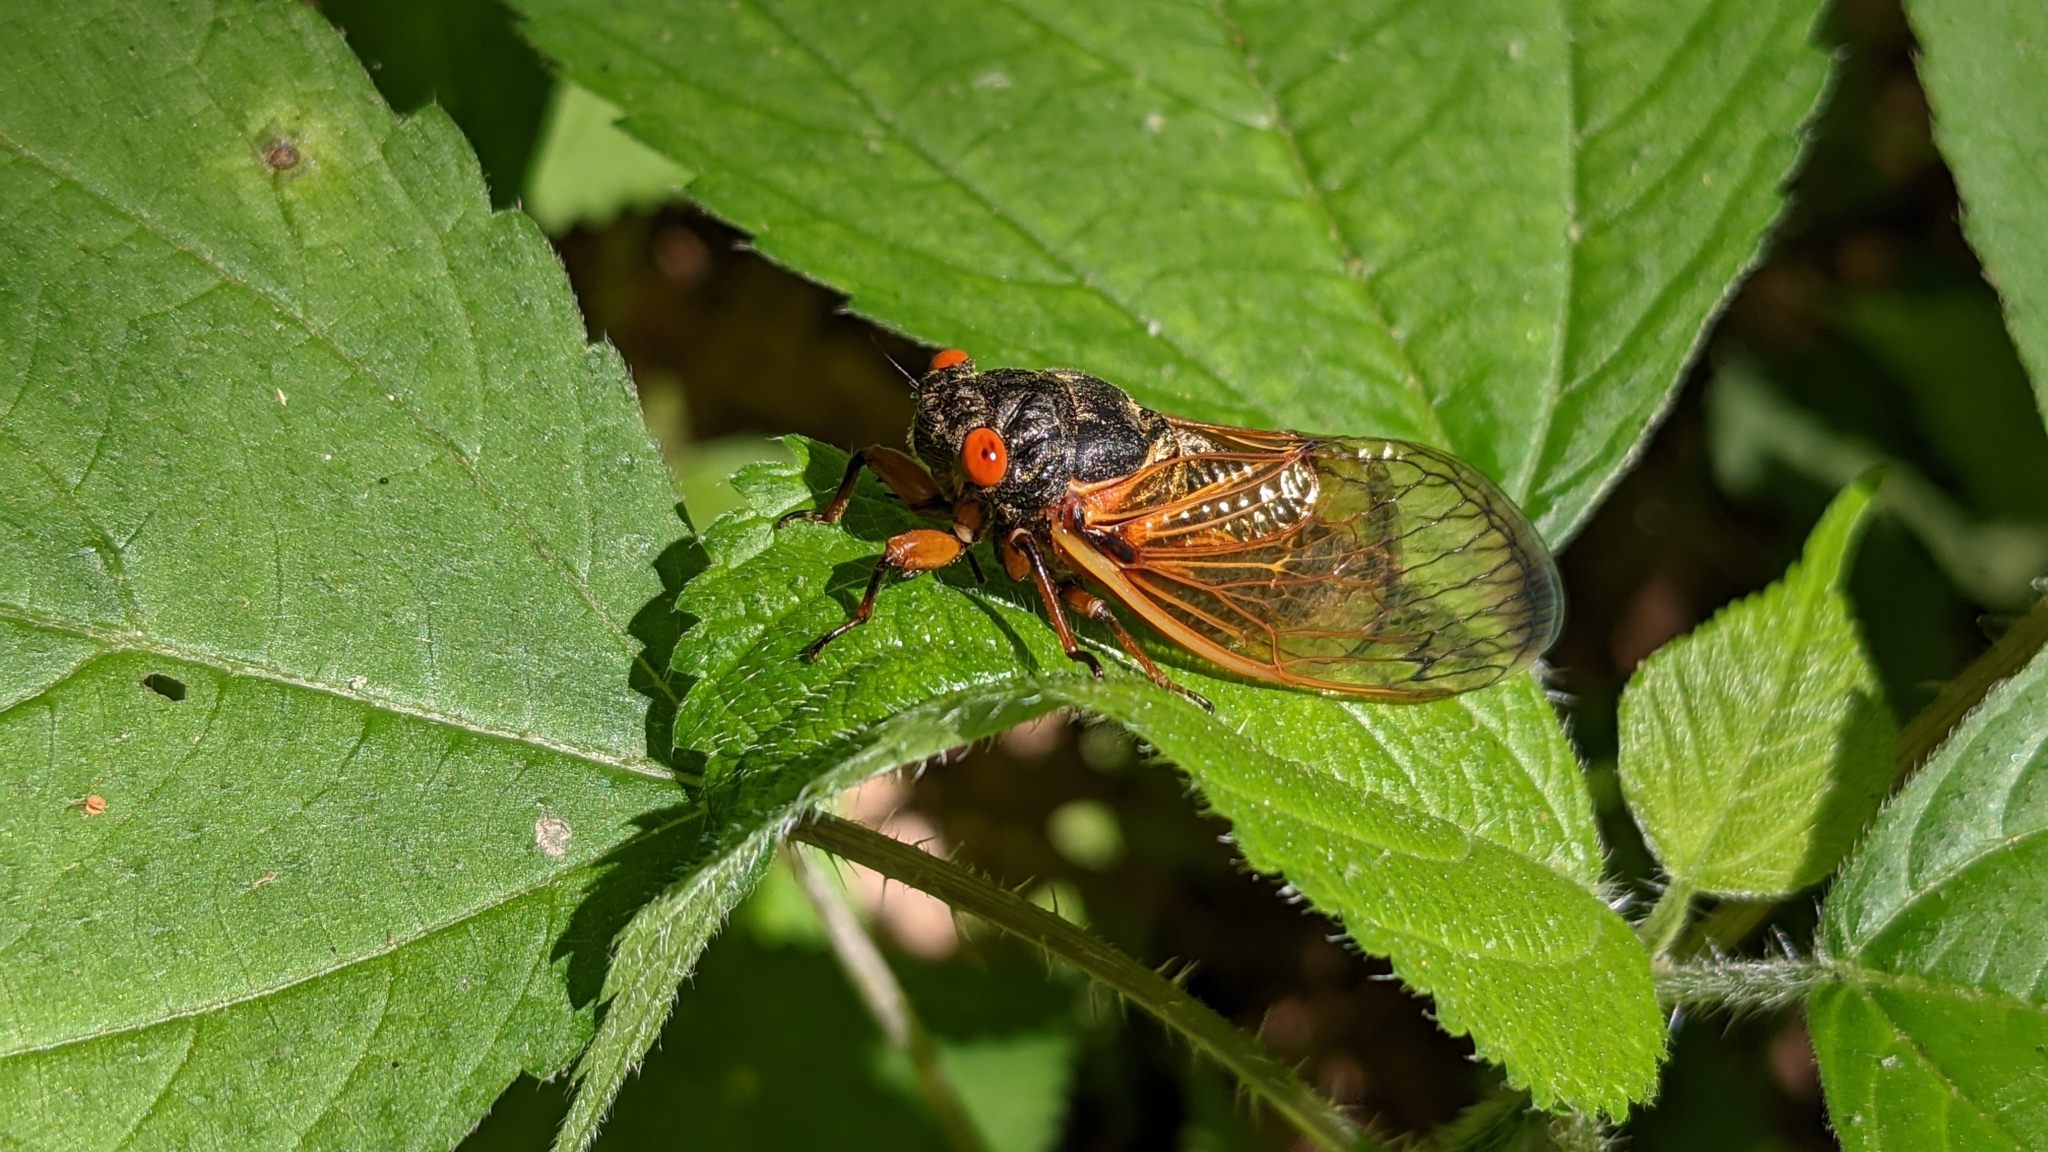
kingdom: Animalia
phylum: Arthropoda
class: Insecta
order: Hemiptera
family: Cicadidae
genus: Magicicada
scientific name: Magicicada
